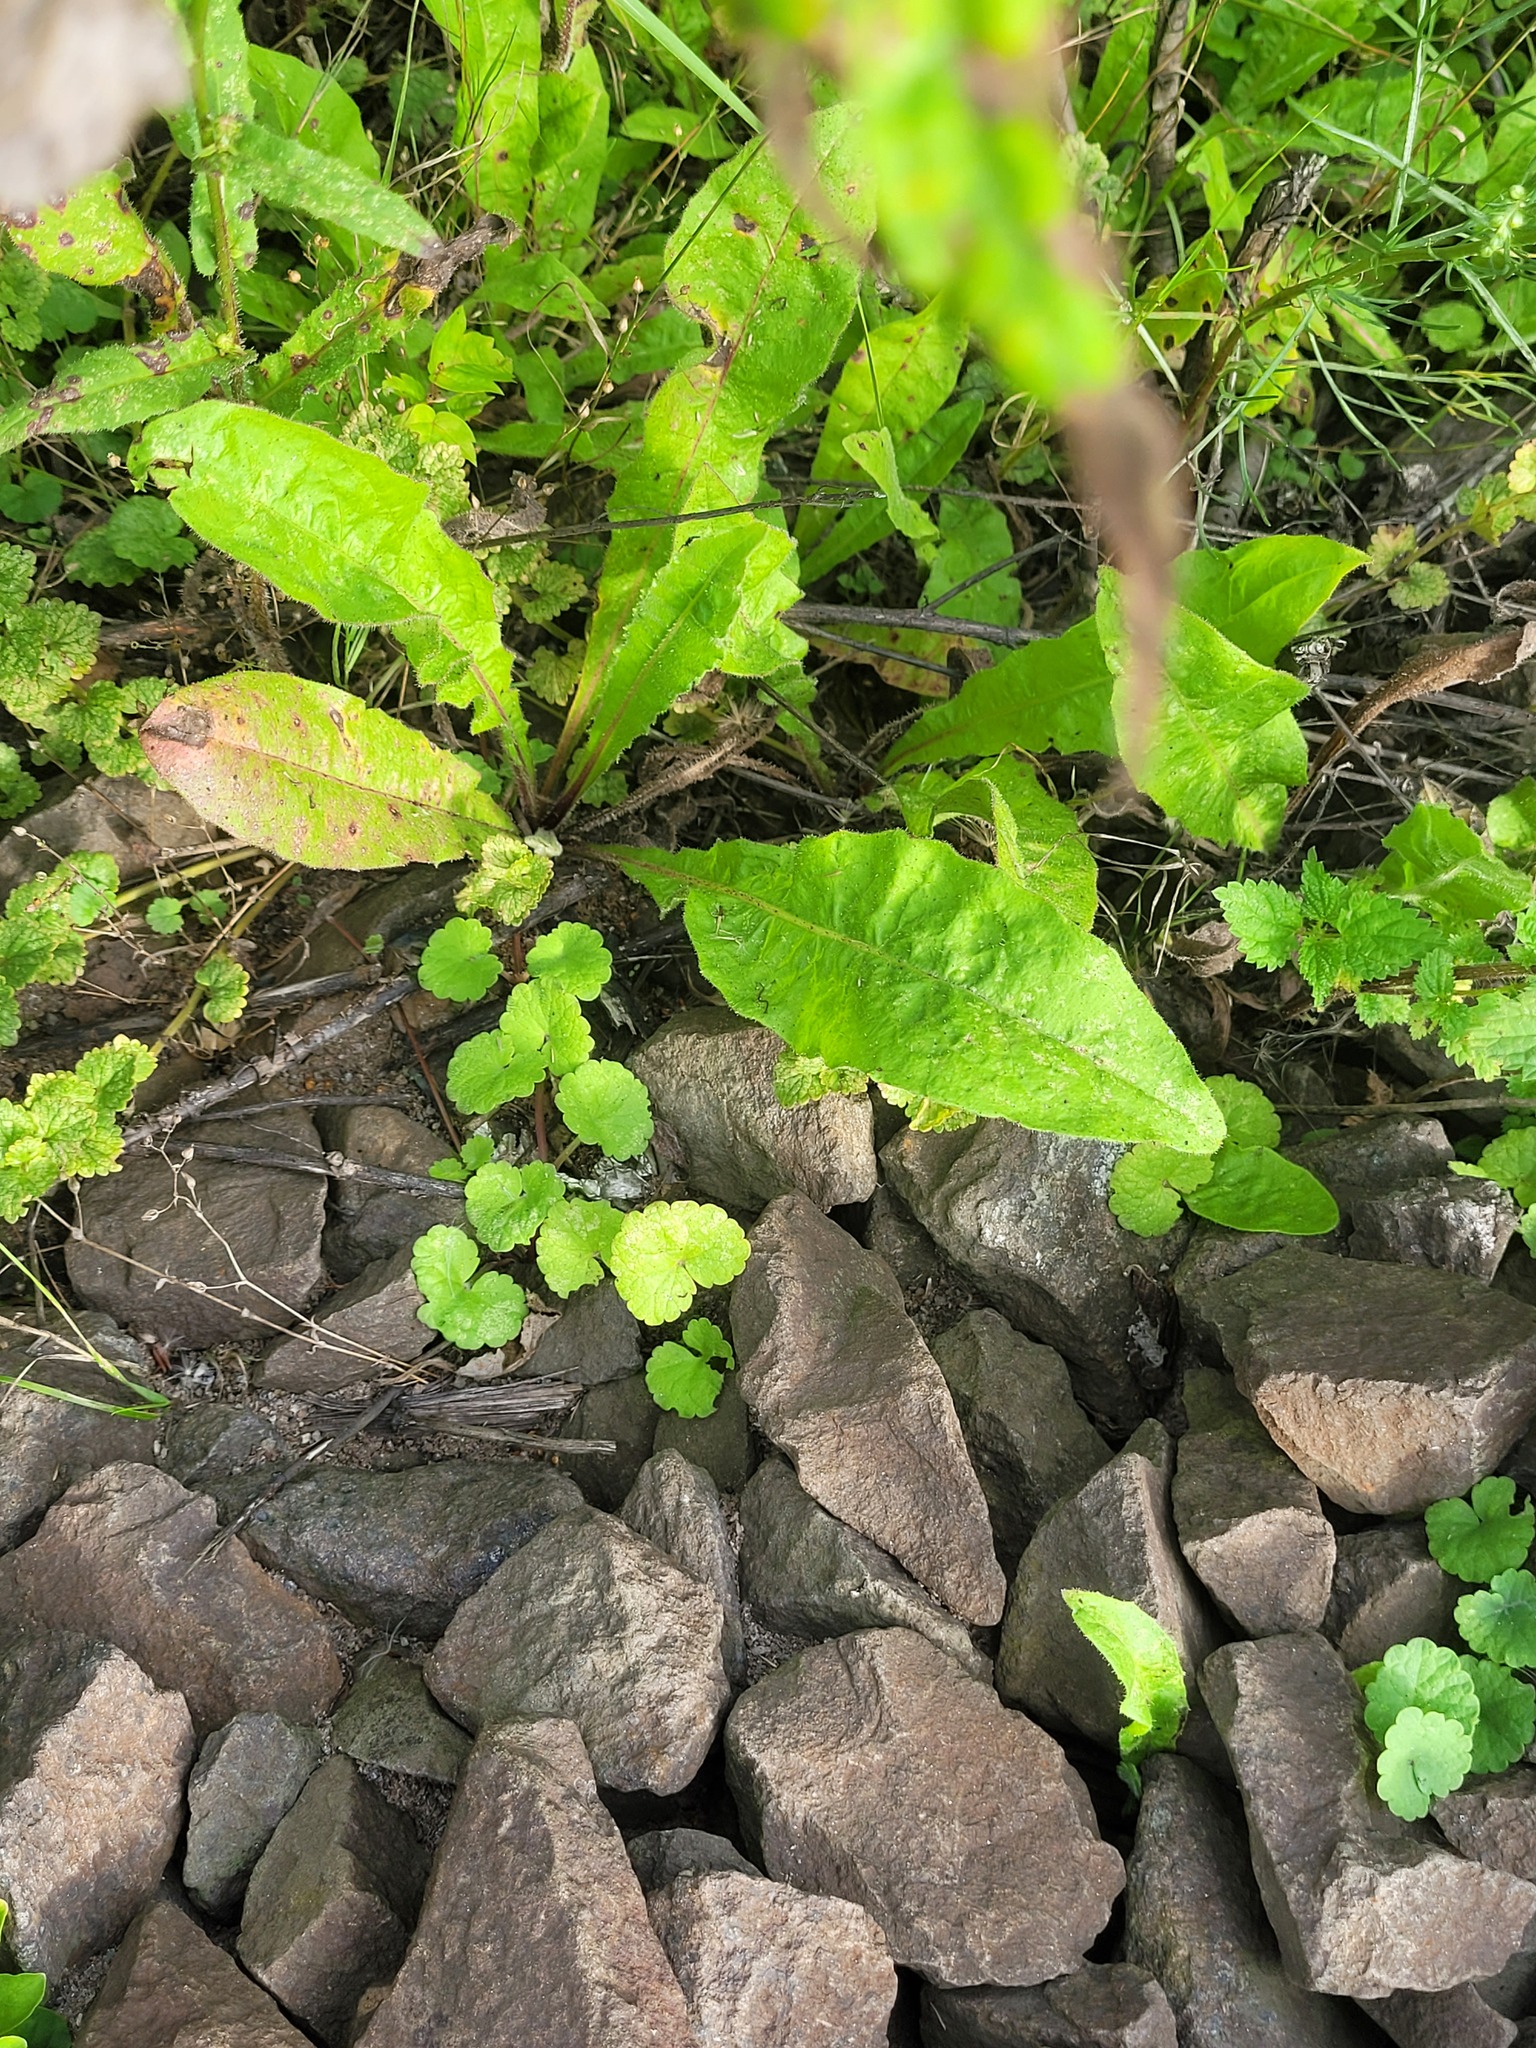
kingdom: Plantae
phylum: Tracheophyta
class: Magnoliopsida
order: Lamiales
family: Lamiaceae
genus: Glechoma
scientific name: Glechoma hederacea
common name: Ground ivy
